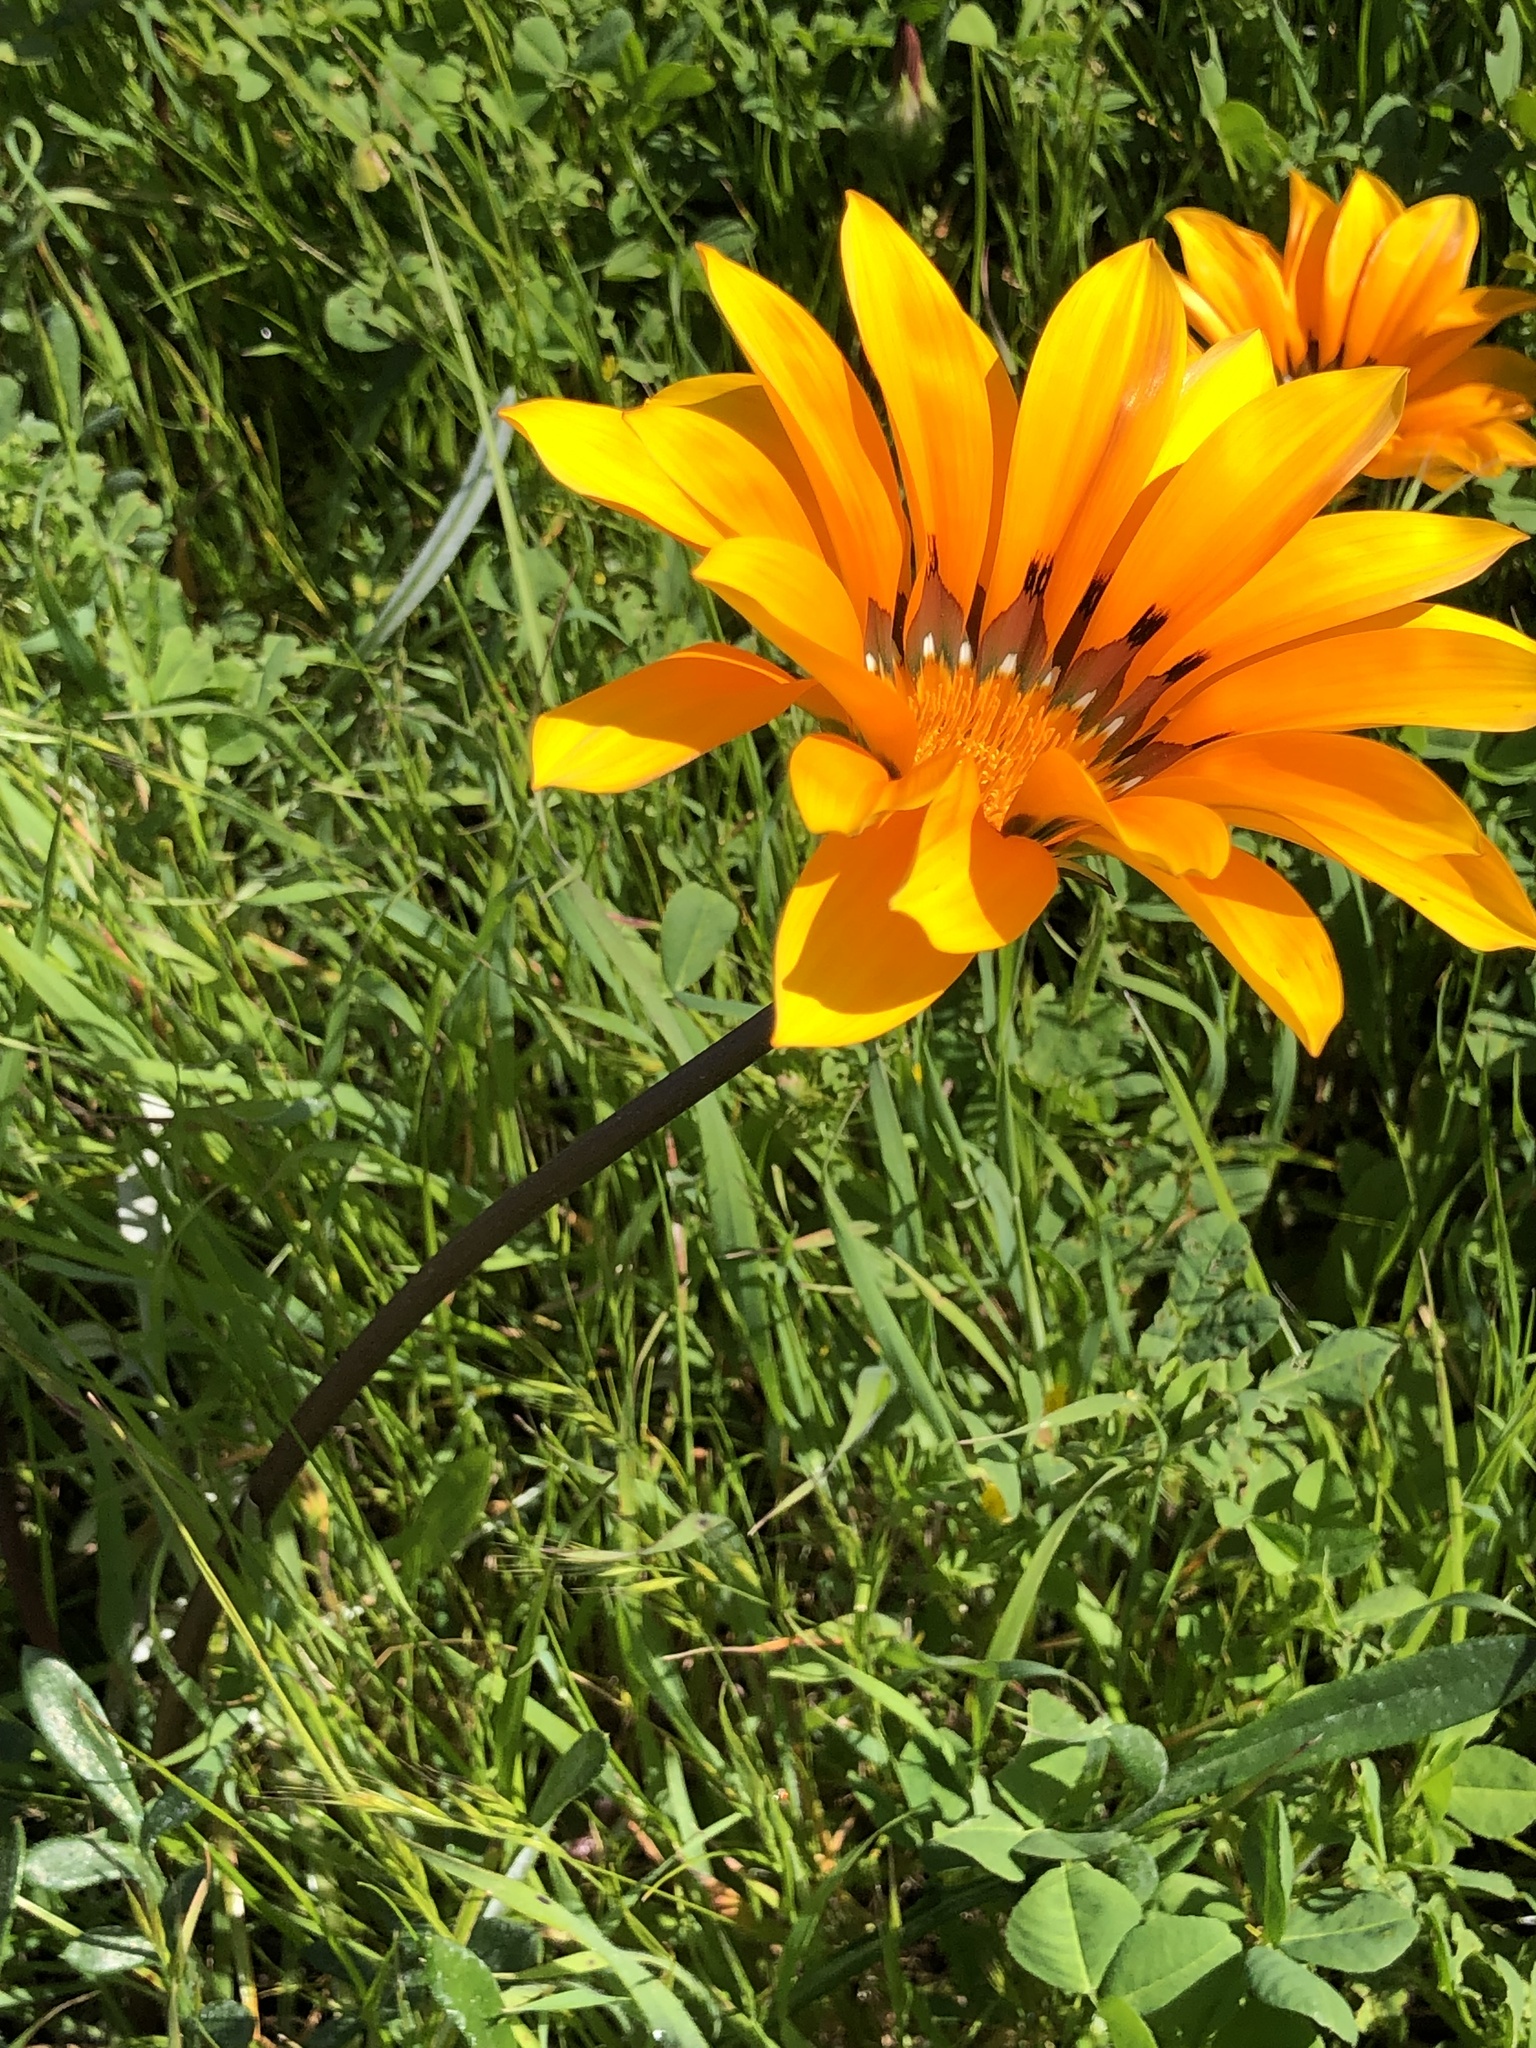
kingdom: Plantae
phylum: Tracheophyta
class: Magnoliopsida
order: Asterales
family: Asteraceae
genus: Gazania
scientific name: Gazania splendens
